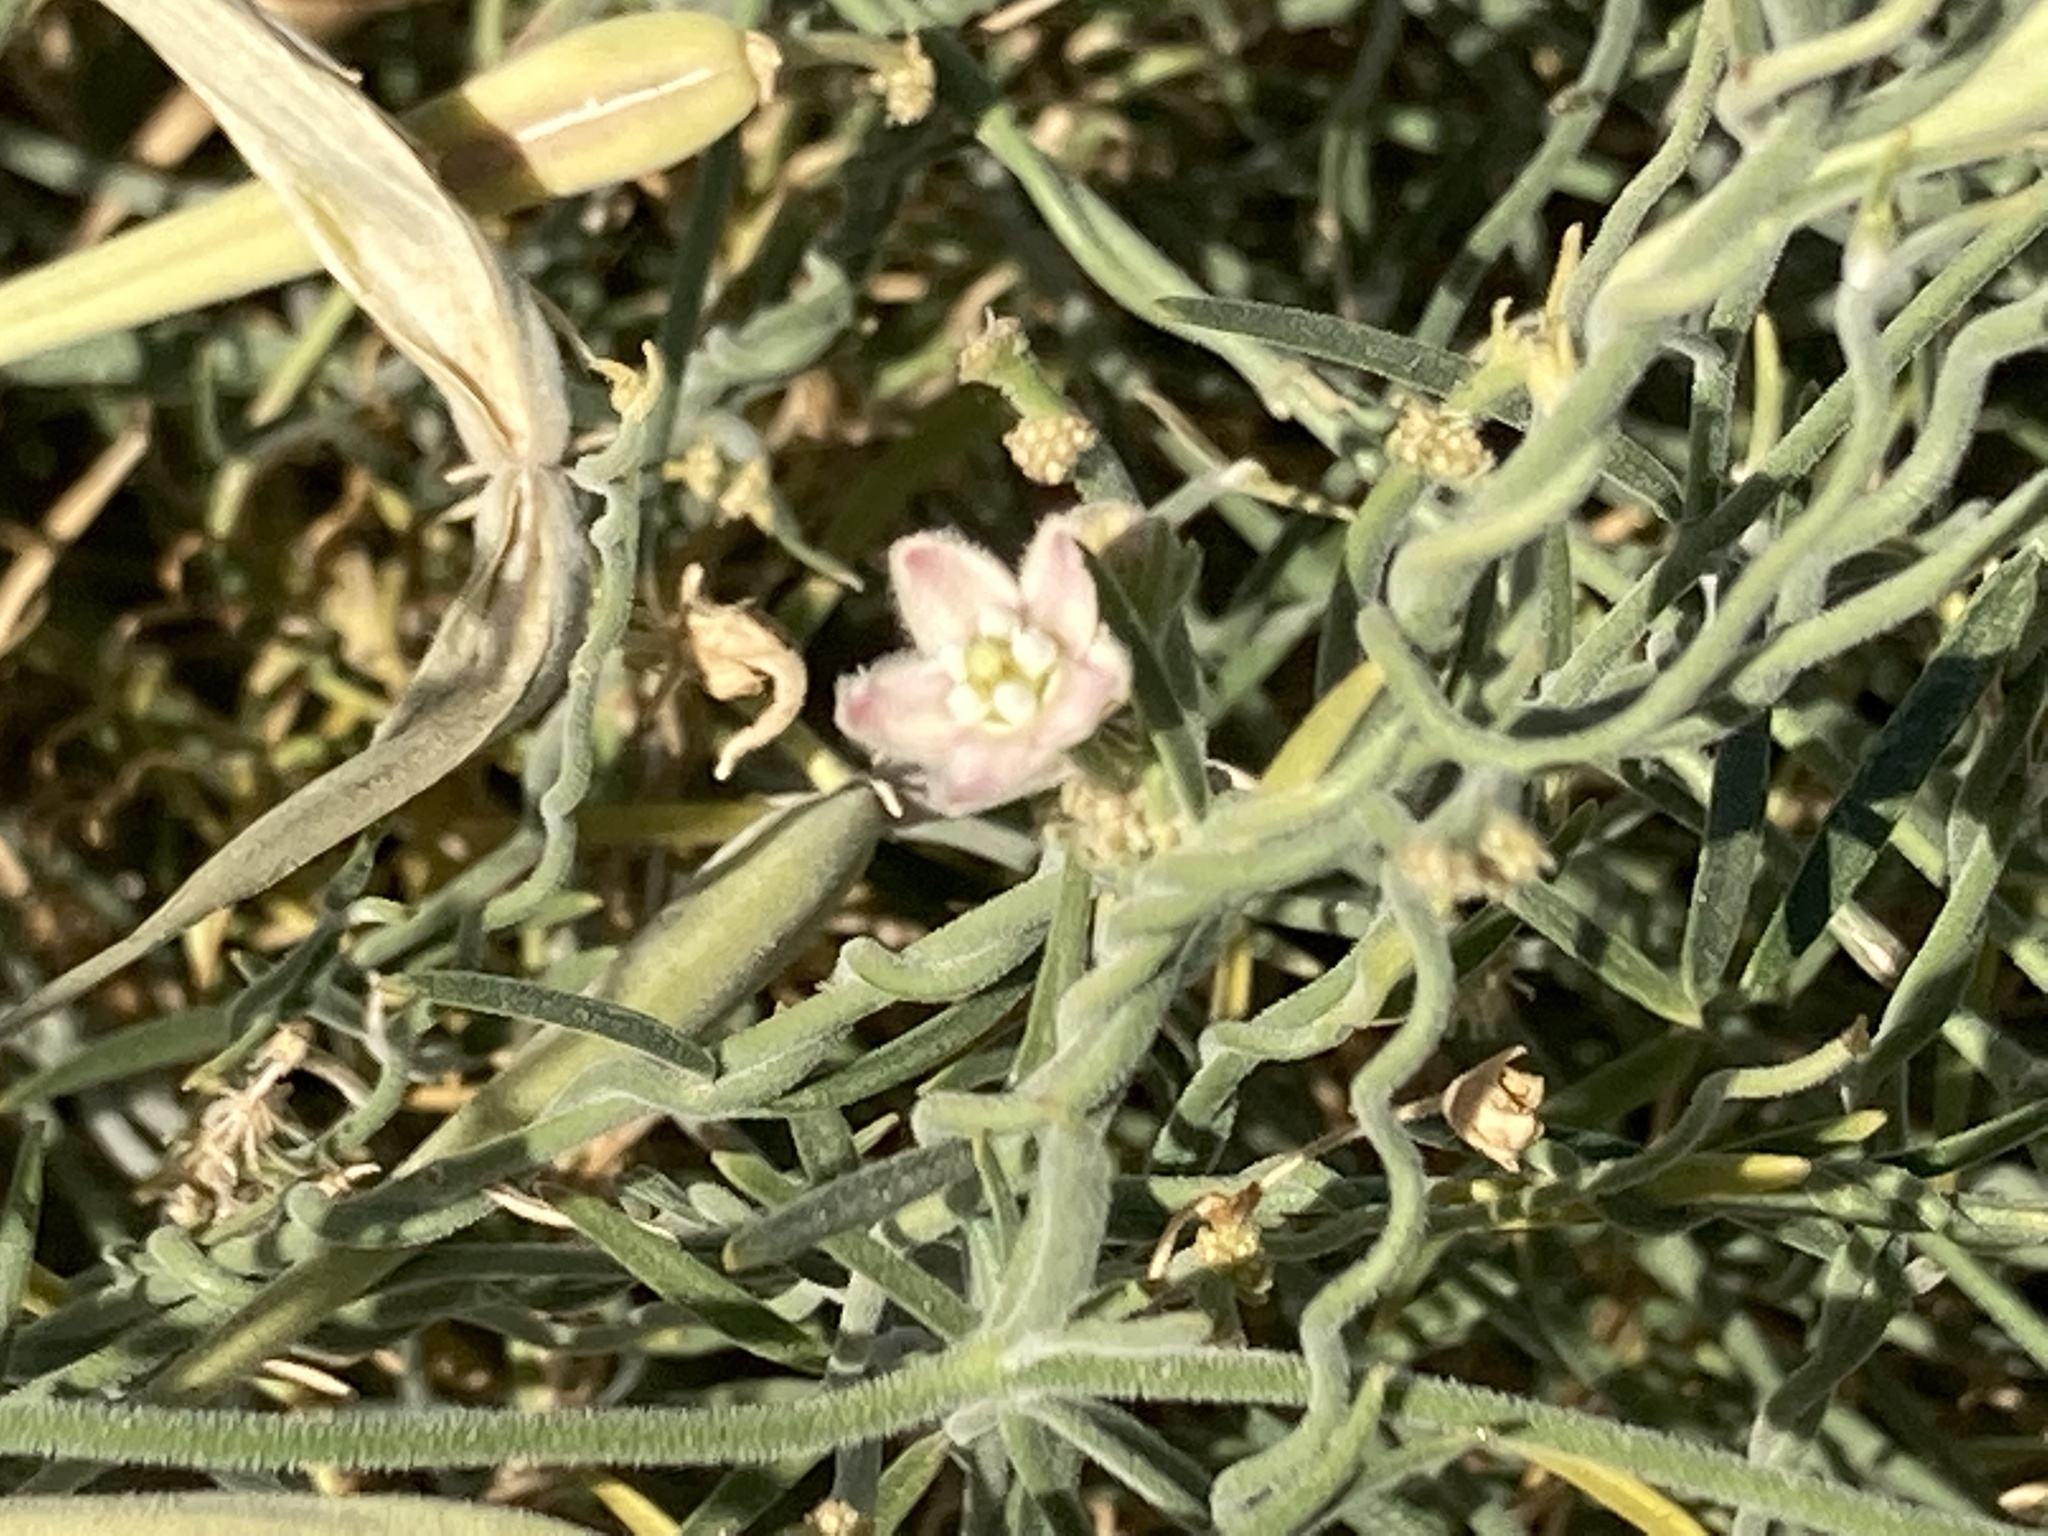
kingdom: Plantae
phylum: Tracheophyta
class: Magnoliopsida
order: Gentianales
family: Apocynaceae
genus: Funastrum
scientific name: Funastrum hirtellum
